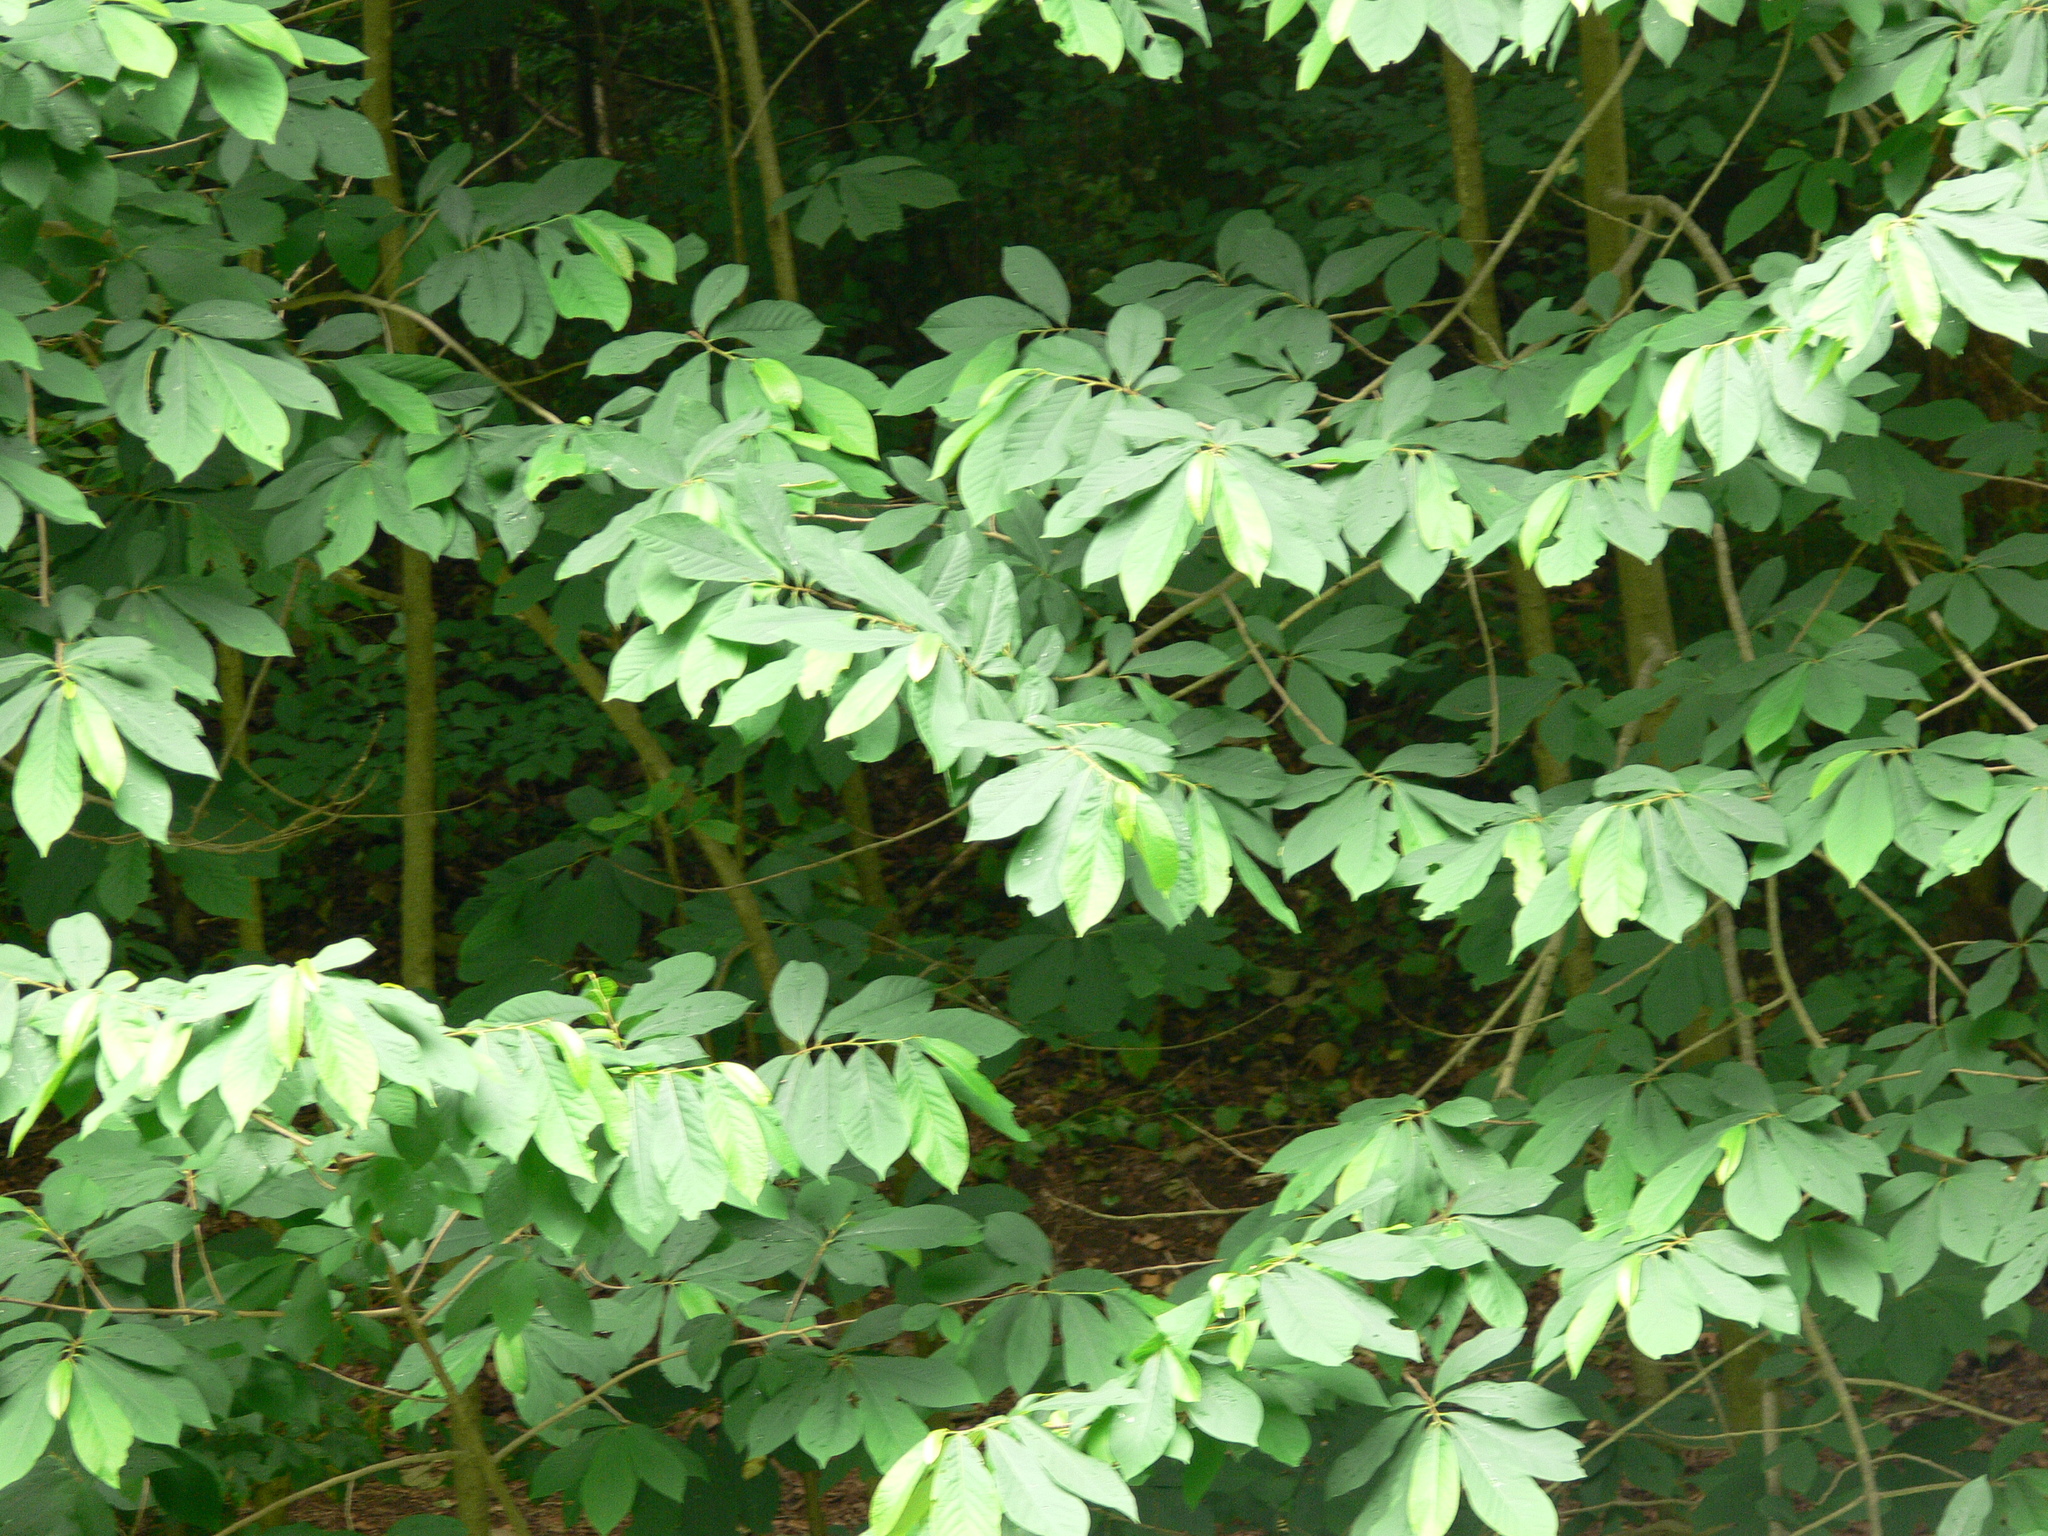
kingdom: Plantae
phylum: Tracheophyta
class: Magnoliopsida
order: Magnoliales
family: Annonaceae
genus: Asimina
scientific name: Asimina triloba
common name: Dog-banana
